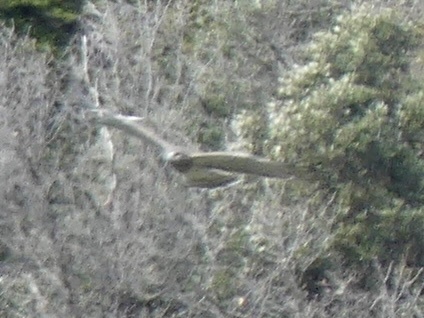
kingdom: Animalia
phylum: Chordata
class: Aves
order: Accipitriformes
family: Accipitridae
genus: Circaetus
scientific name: Circaetus gallicus
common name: Short-toed snake eagle
